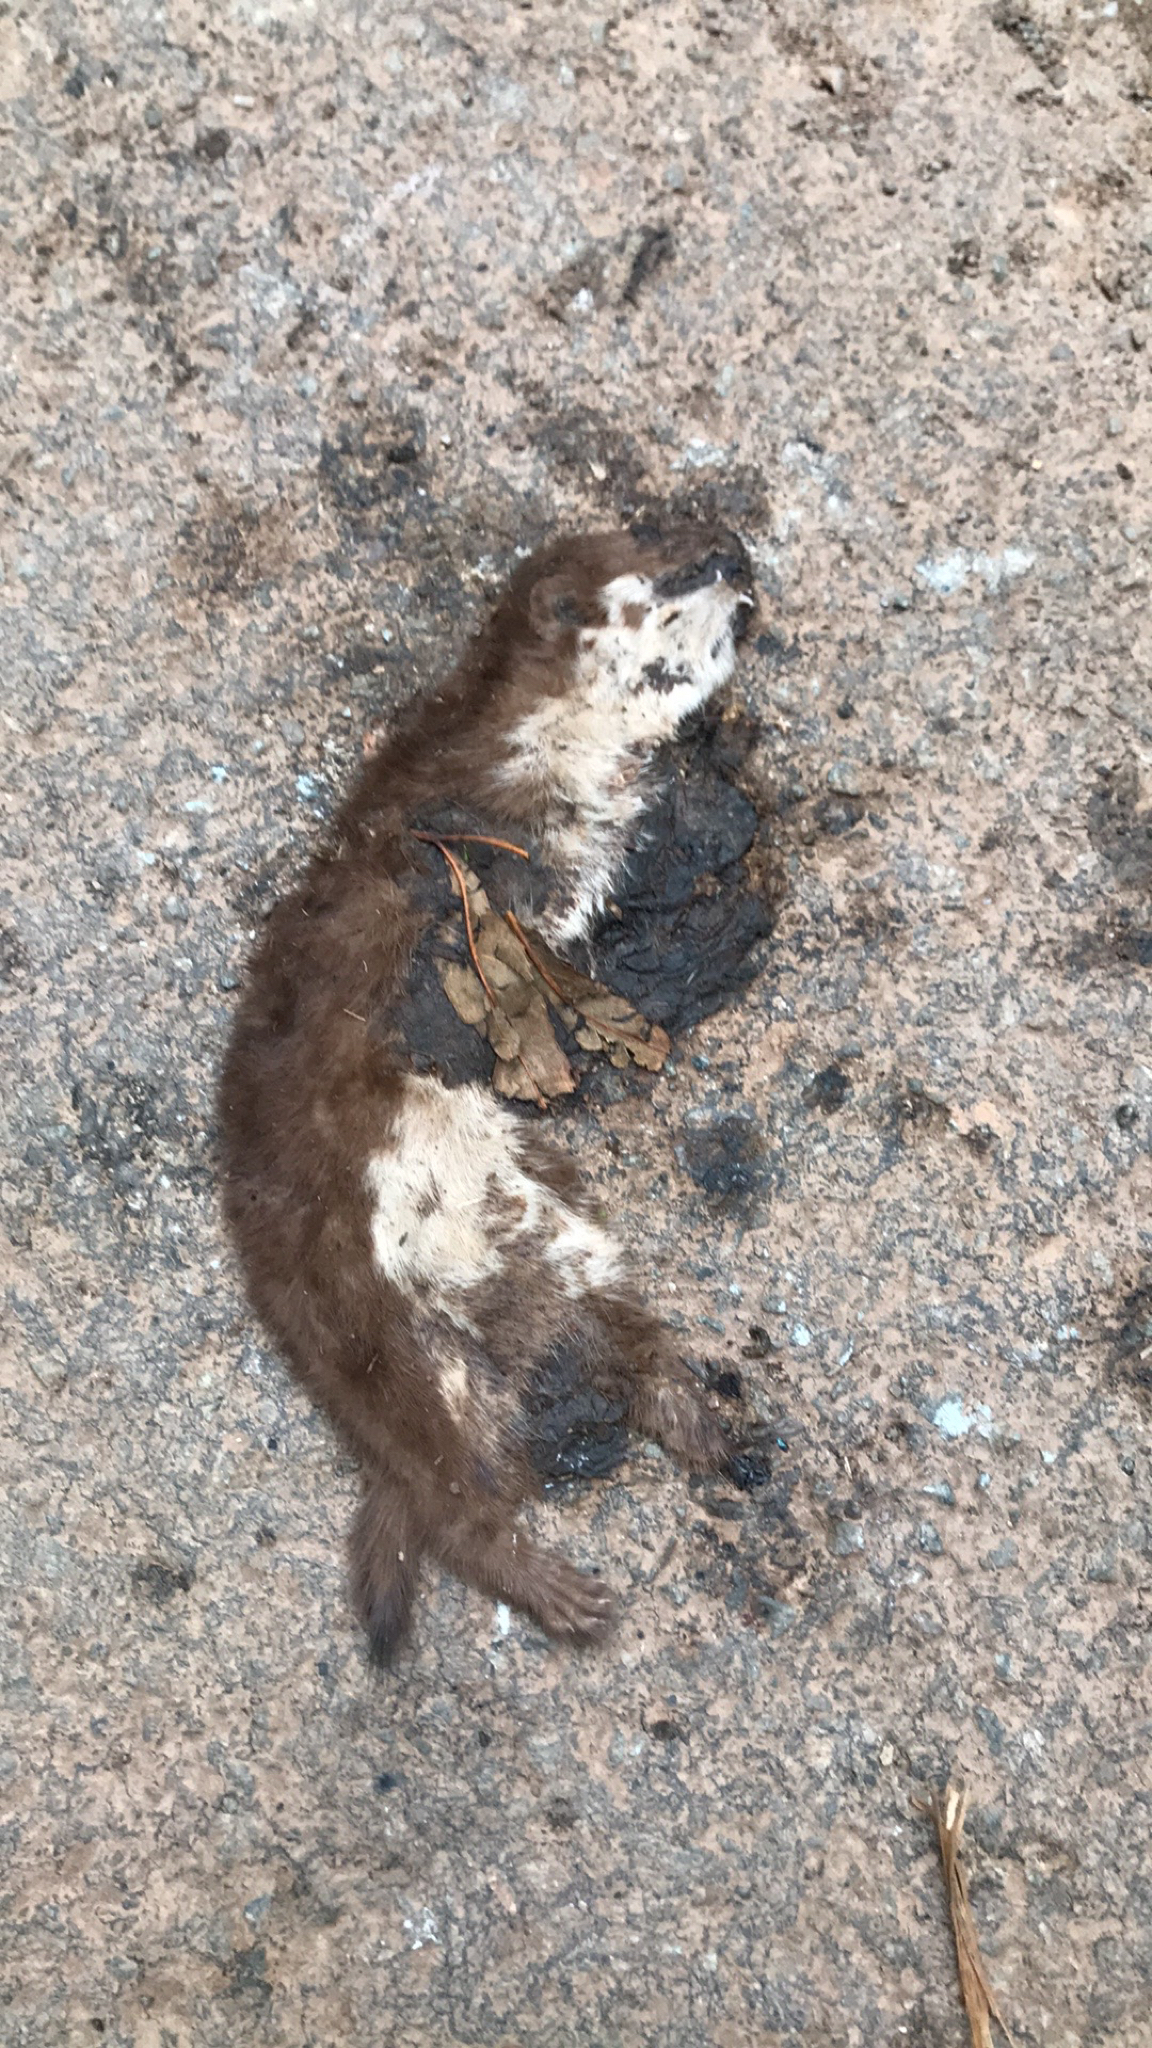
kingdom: Animalia
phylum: Chordata
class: Mammalia
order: Carnivora
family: Mustelidae
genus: Mustela
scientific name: Mustela nivalis
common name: Least weasel
